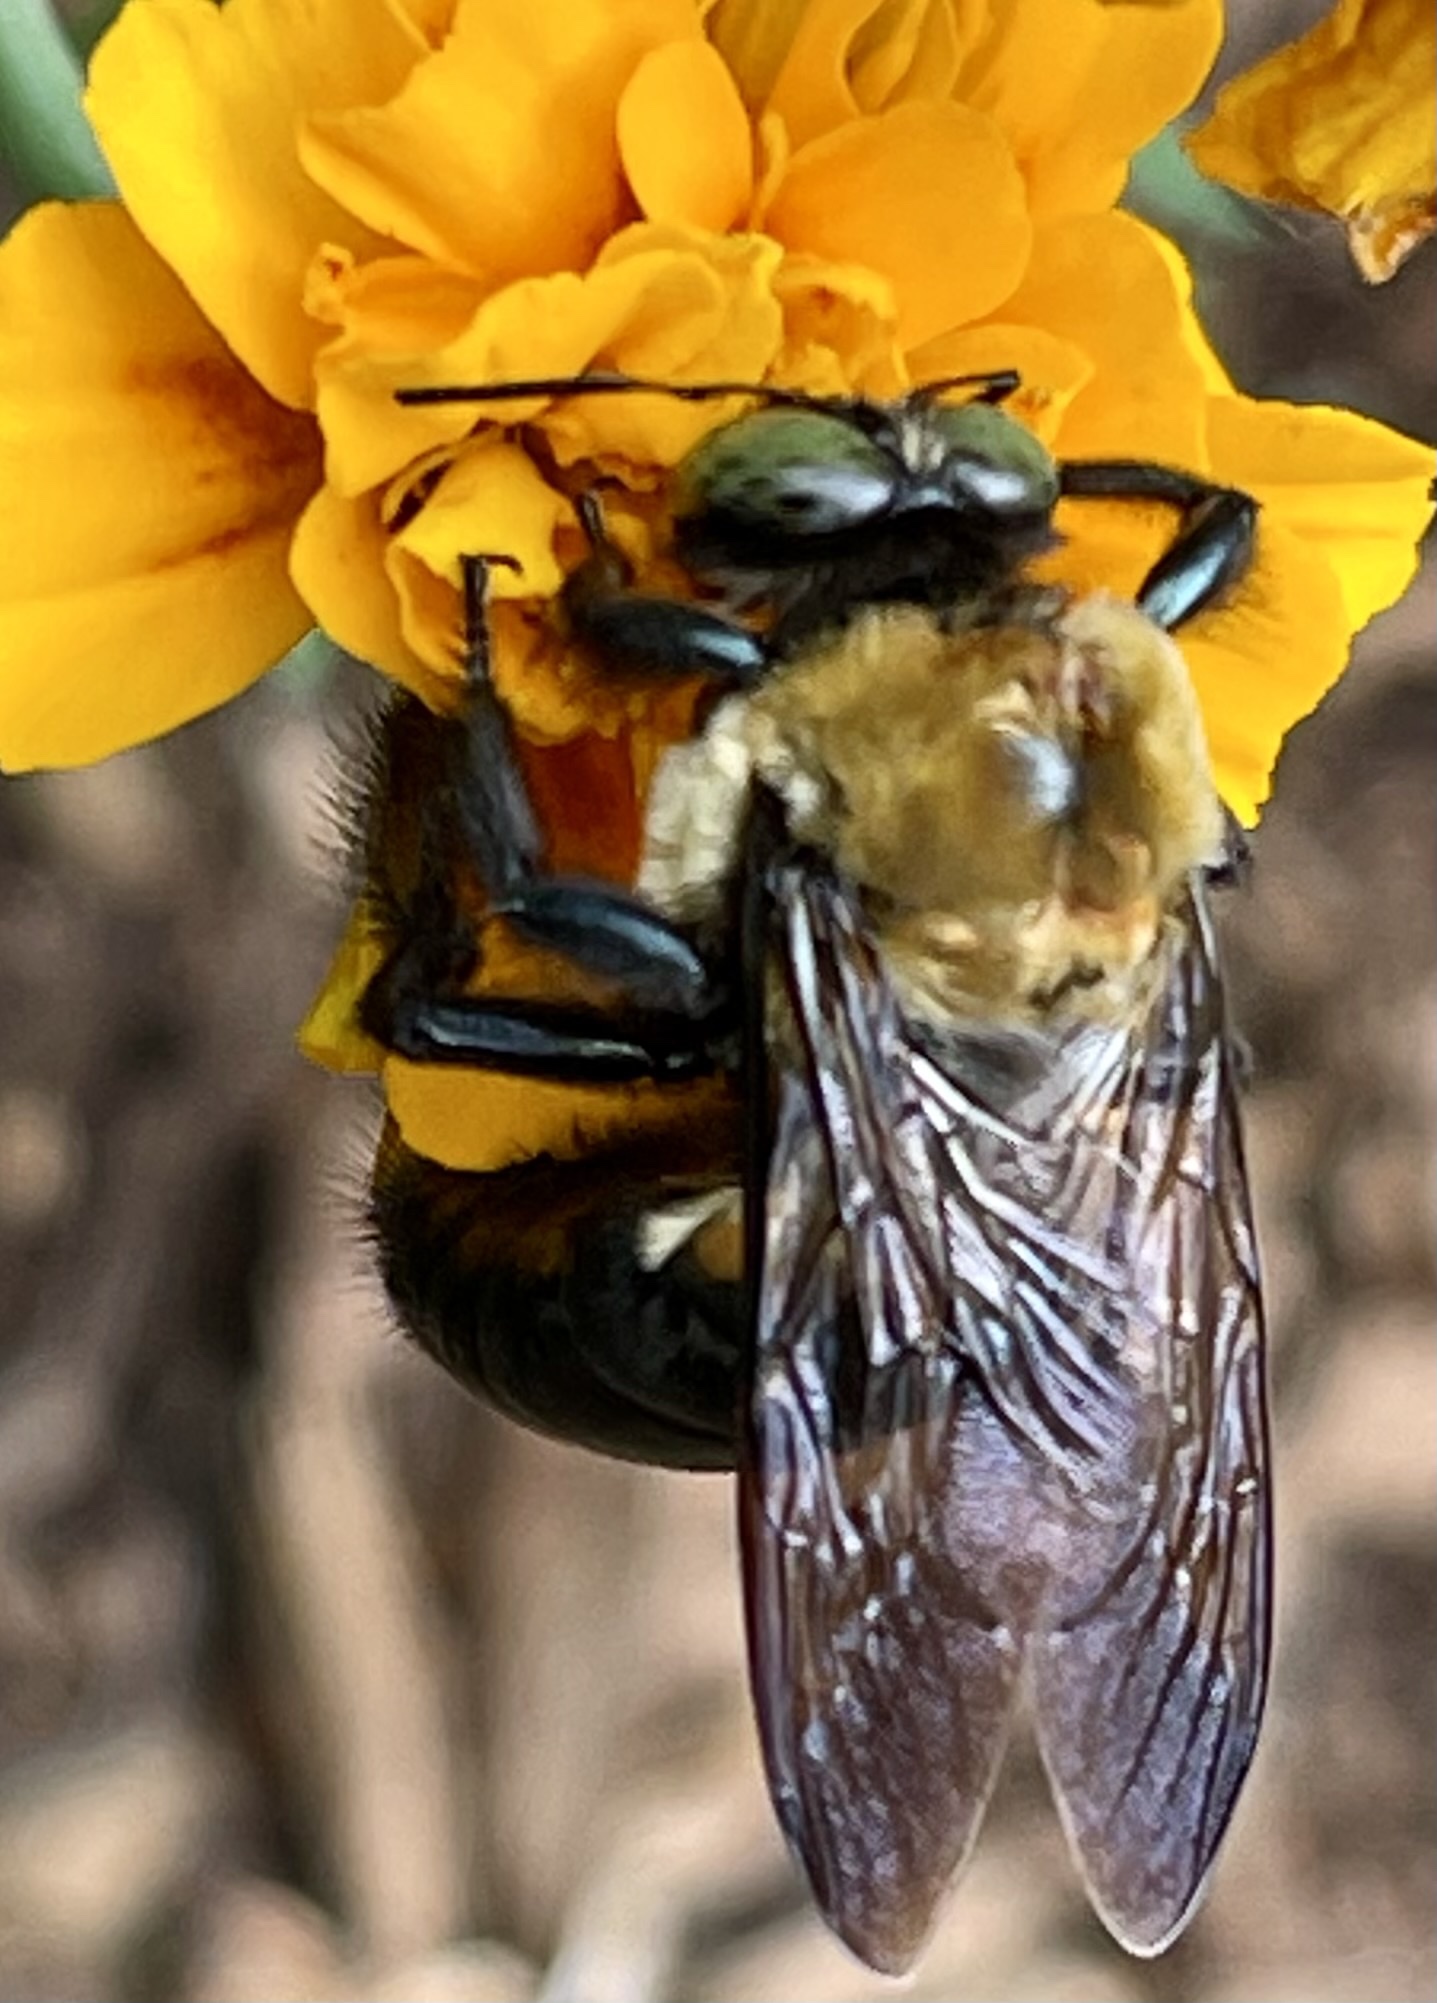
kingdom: Animalia
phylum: Arthropoda
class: Insecta
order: Hymenoptera
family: Apidae
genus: Xylocopa
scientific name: Xylocopa virginica
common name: Carpenter bee
